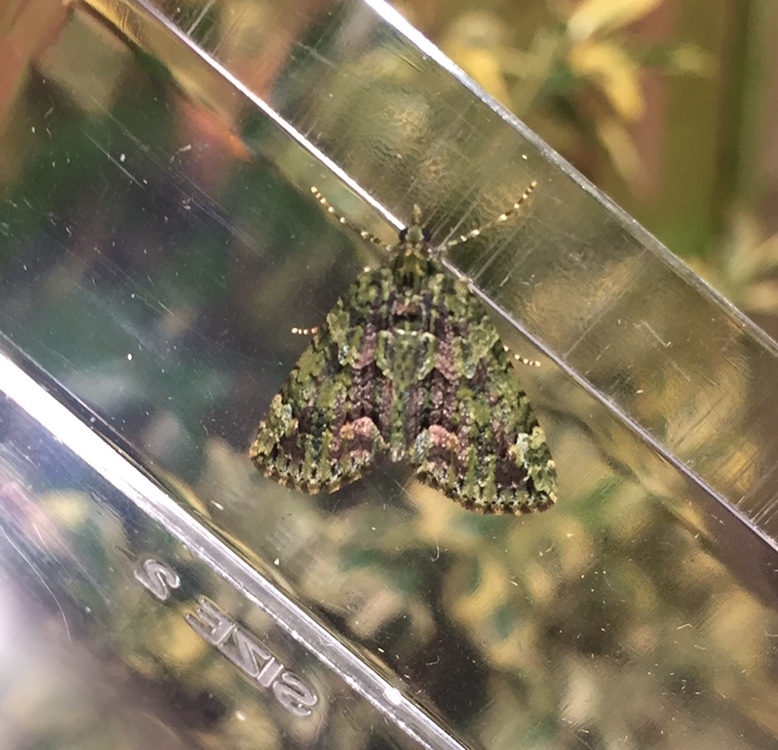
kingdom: Animalia
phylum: Arthropoda
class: Insecta
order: Lepidoptera
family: Geometridae
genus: Chloroclysta
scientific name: Chloroclysta siterata
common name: Red-green carpet
